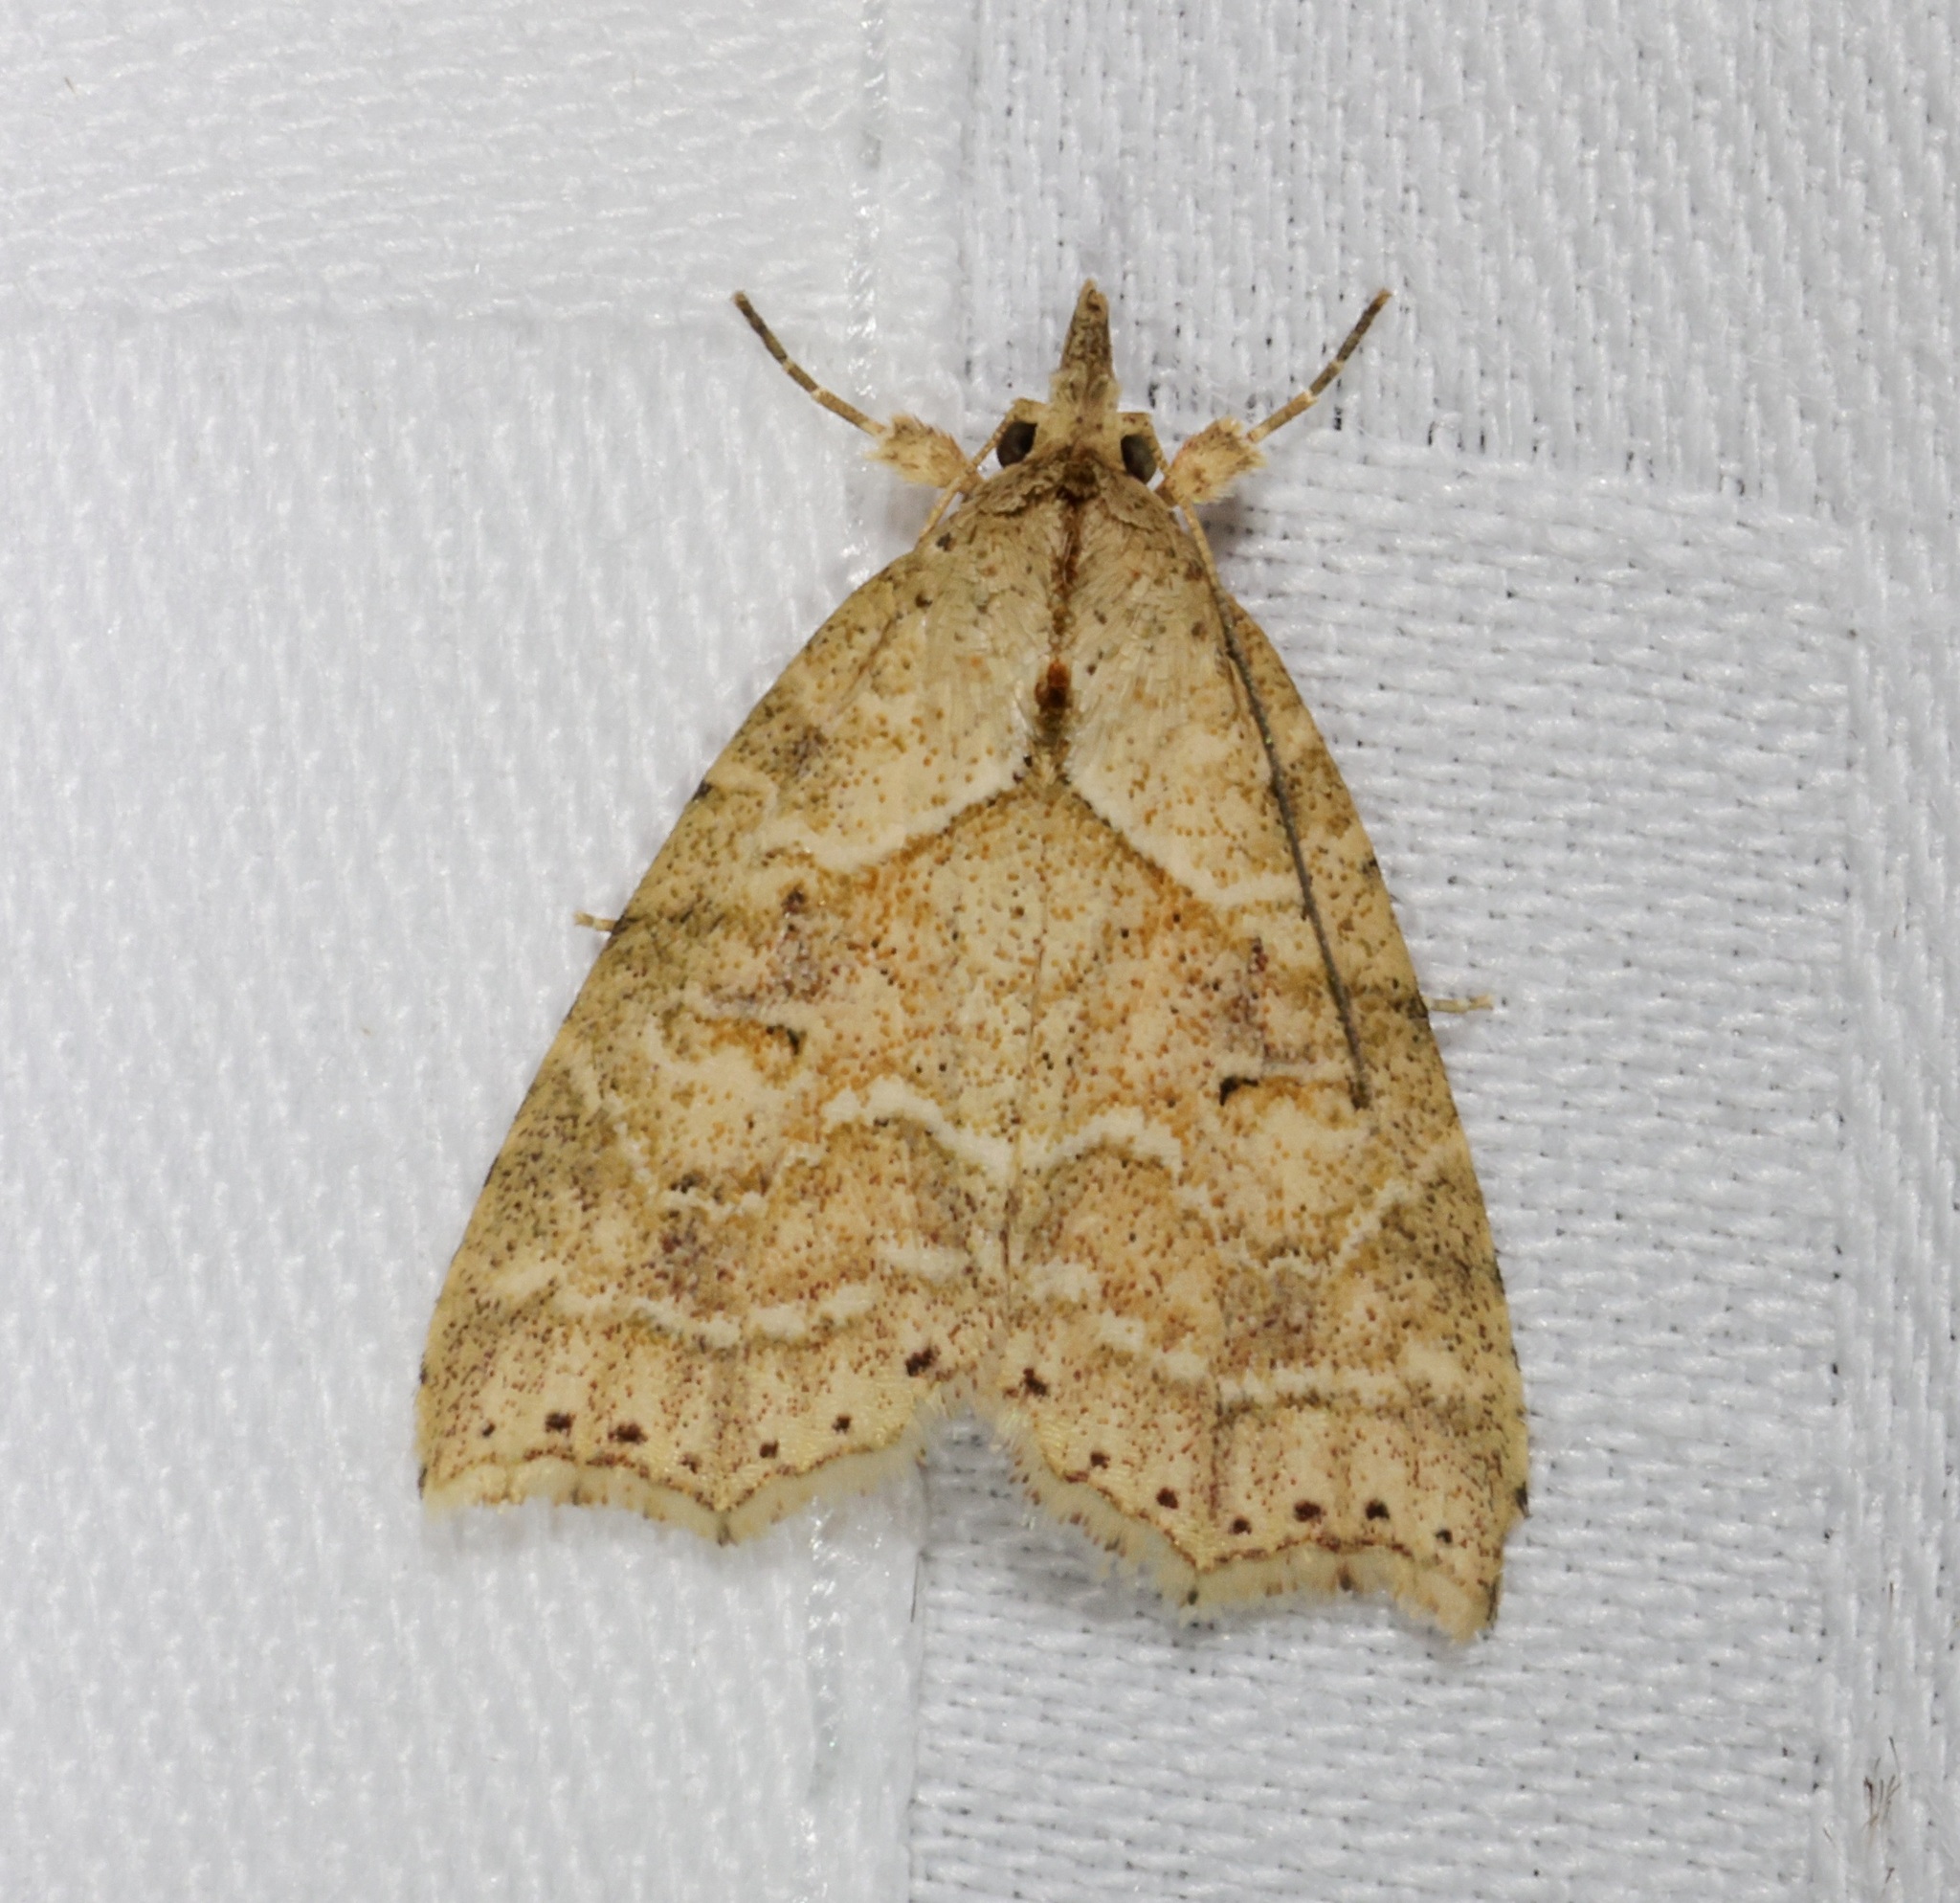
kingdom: Animalia
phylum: Arthropoda
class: Insecta
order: Lepidoptera
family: Erebidae
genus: Olulis
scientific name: Olulis puncticinctalis
